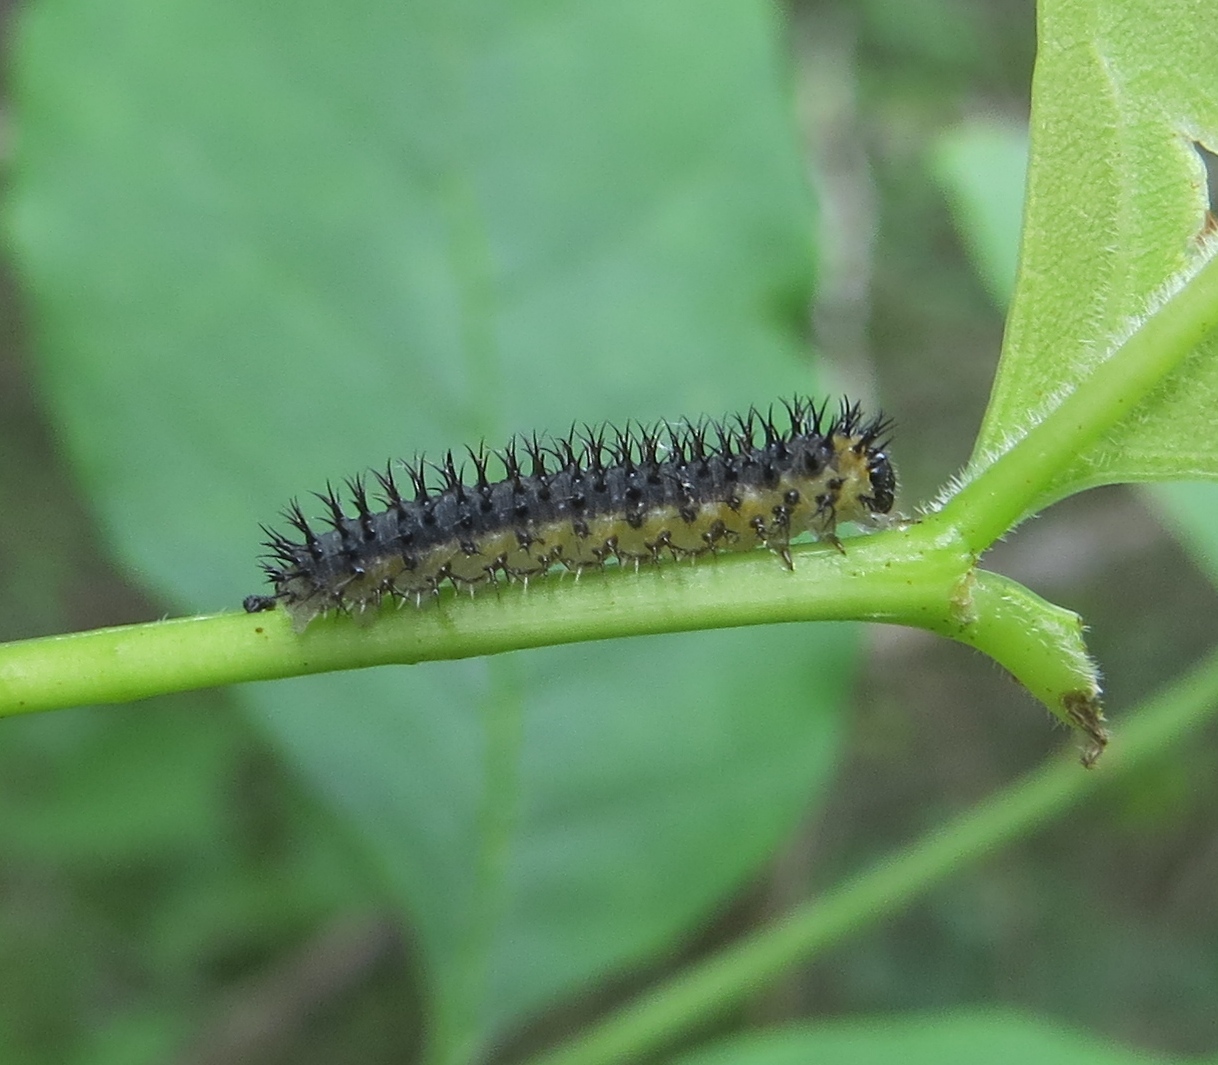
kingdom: Animalia
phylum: Arthropoda
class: Insecta
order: Hymenoptera
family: Tenthredinidae
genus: Eupareophora
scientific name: Eupareophora parca
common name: Sawfly
